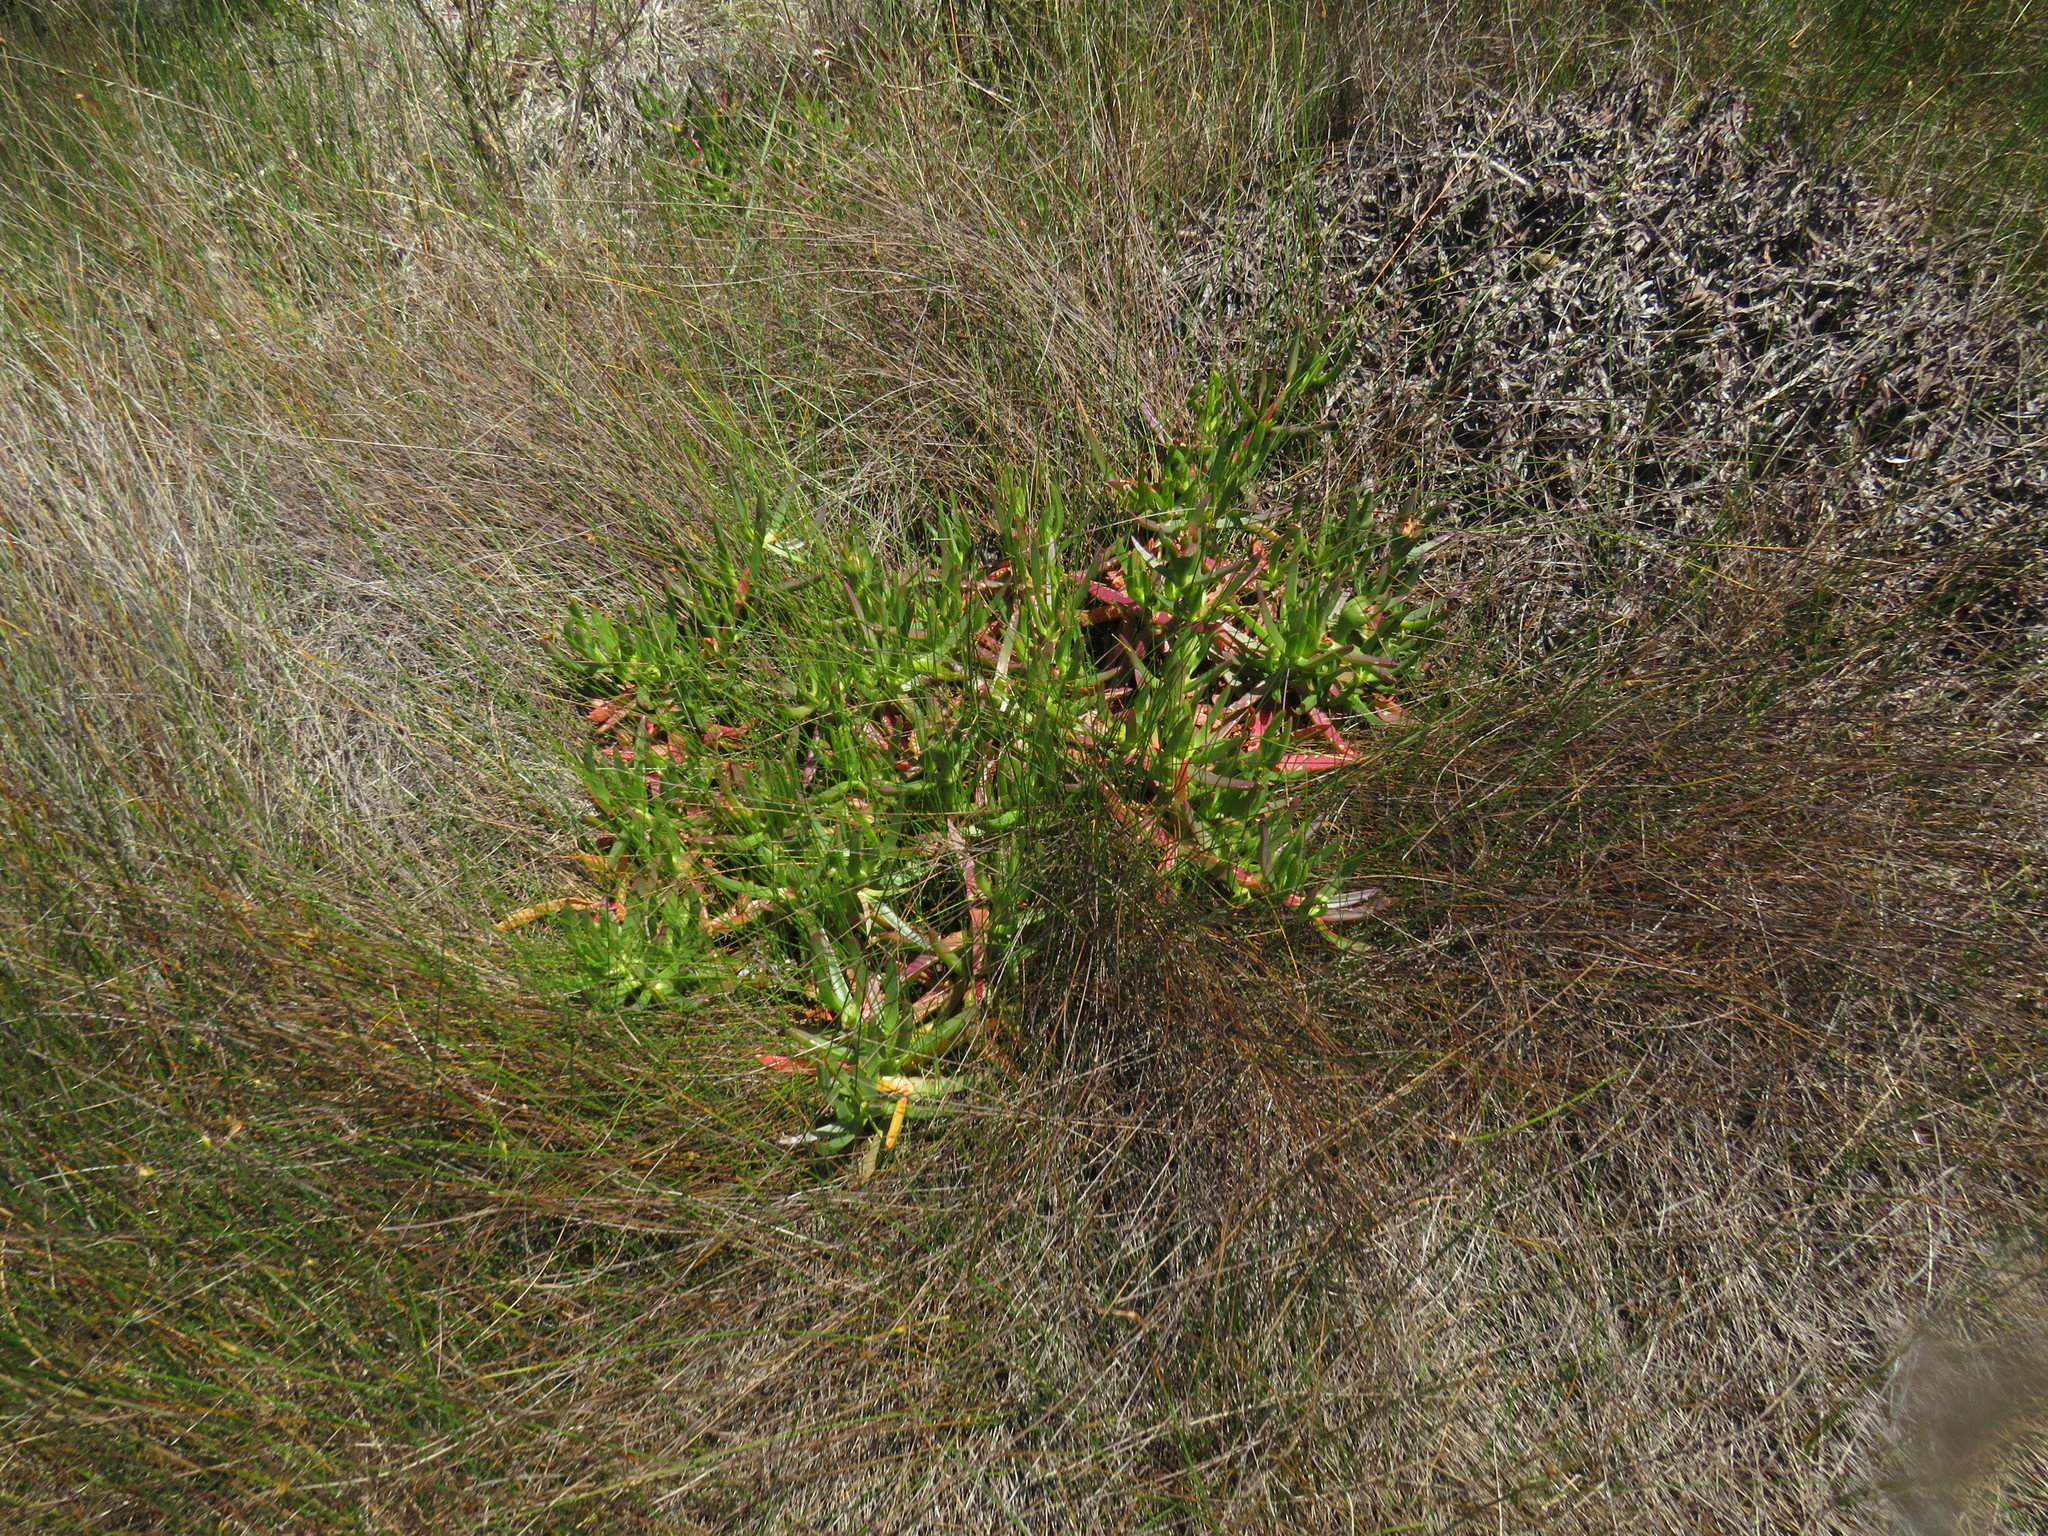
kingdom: Plantae
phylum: Tracheophyta
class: Magnoliopsida
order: Caryophyllales
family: Aizoaceae
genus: Carpobrotus
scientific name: Carpobrotus edulis
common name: Hottentot-fig
